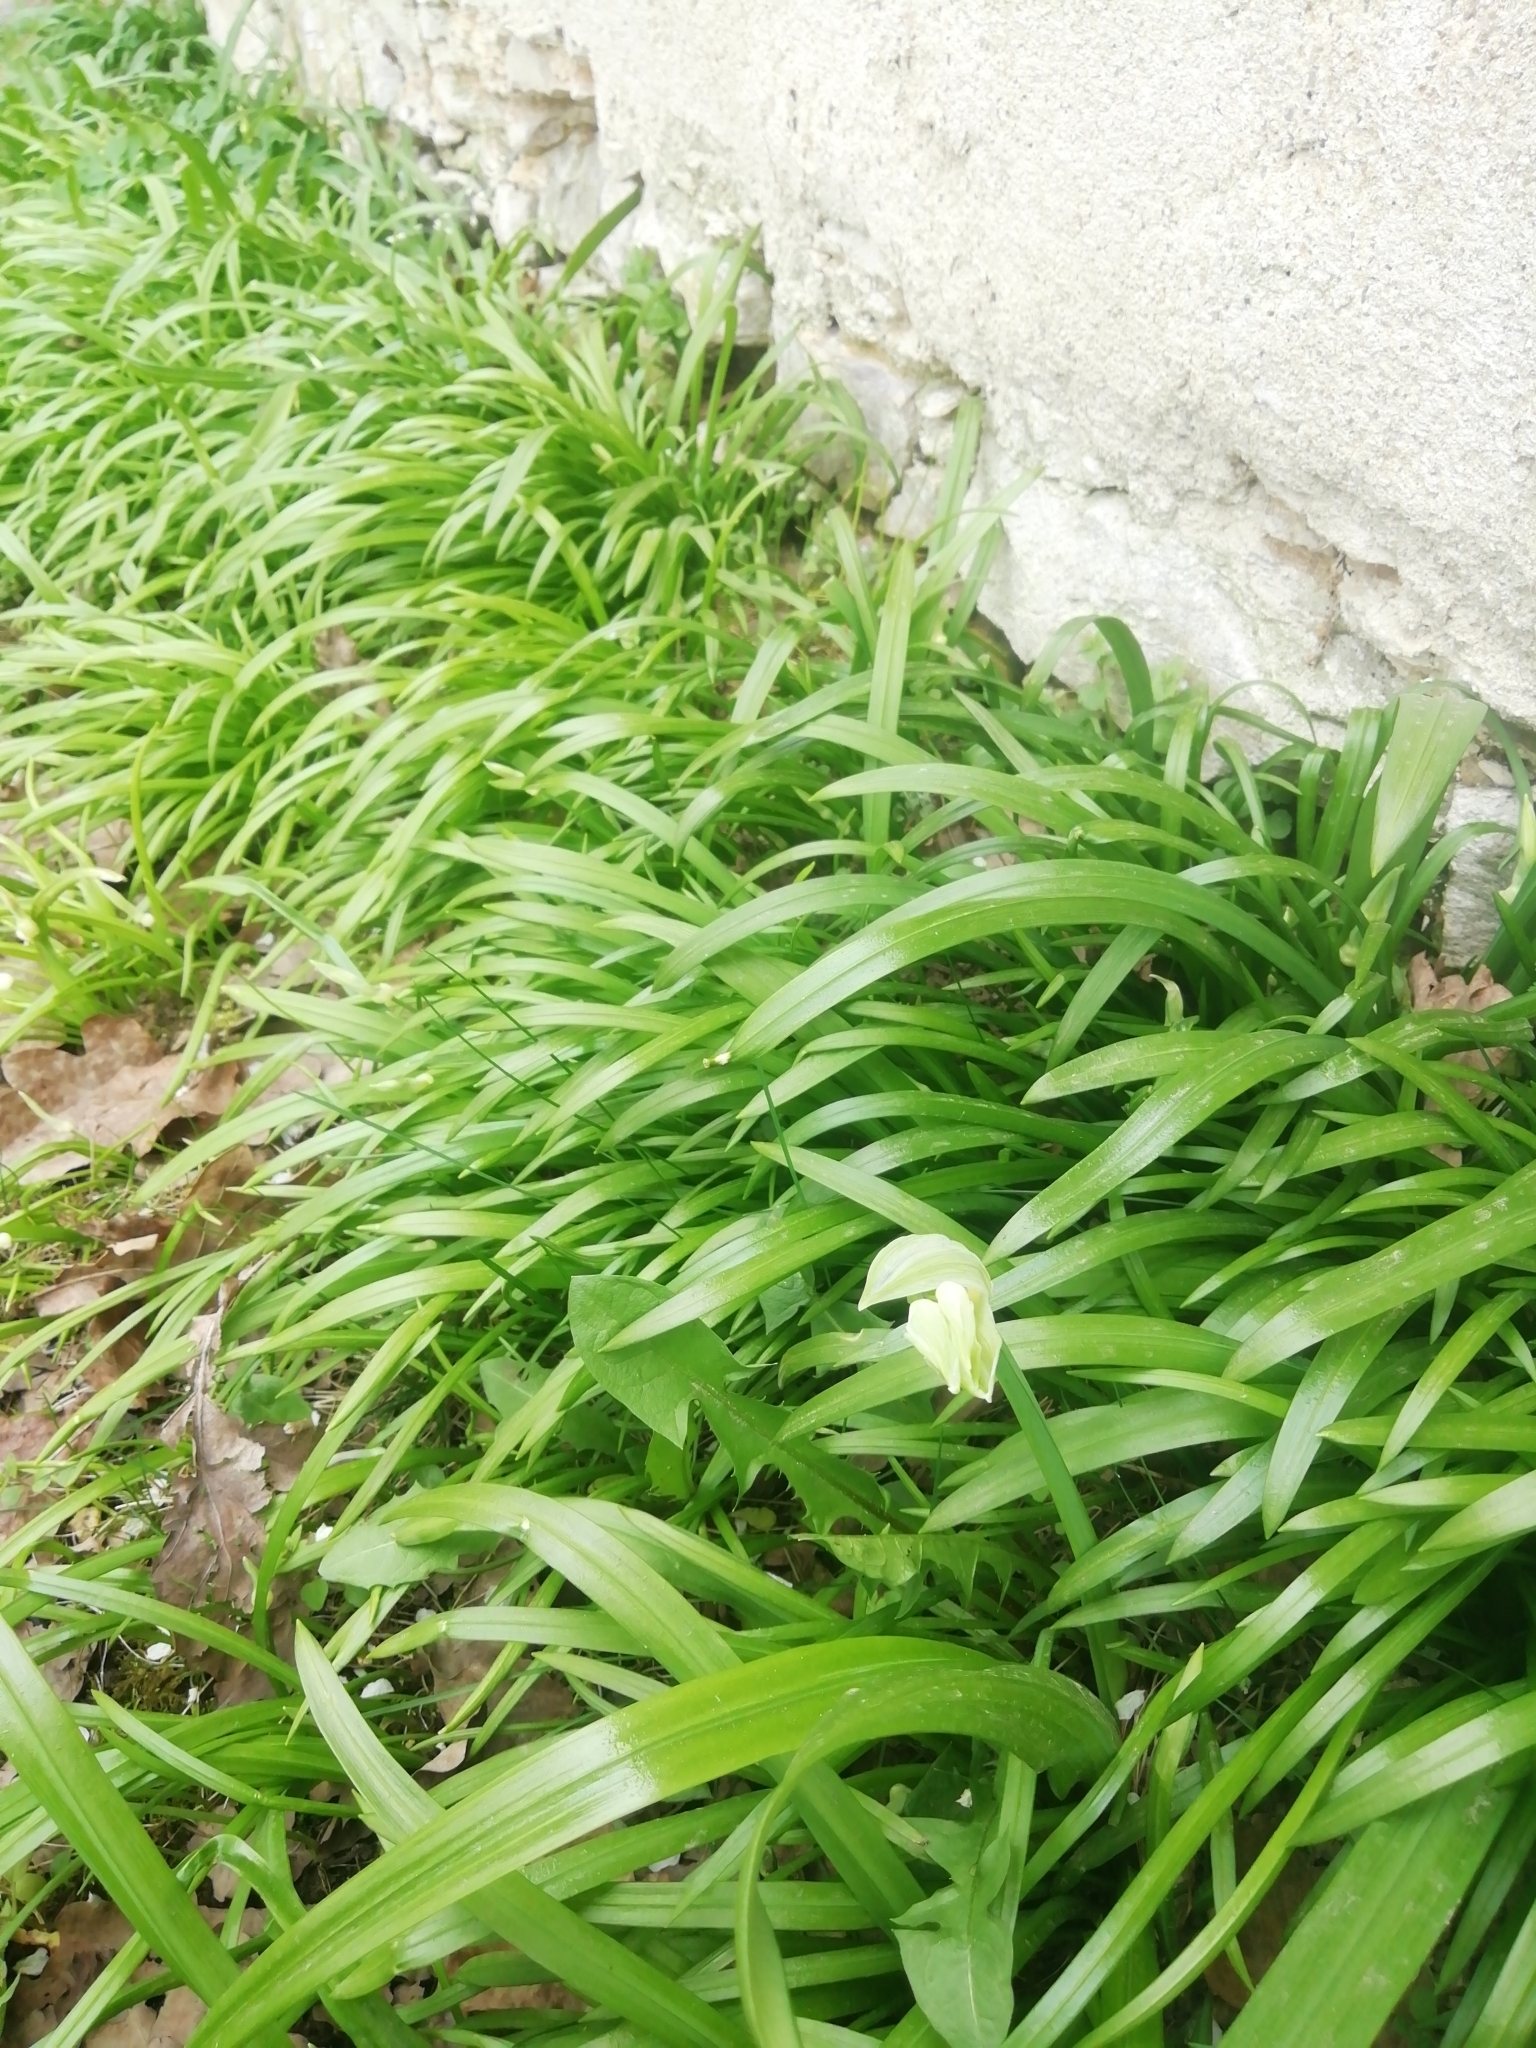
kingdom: Plantae
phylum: Tracheophyta
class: Liliopsida
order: Asparagales
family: Amaryllidaceae
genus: Allium
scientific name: Allium paradoxum
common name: Few-flowered garlic
